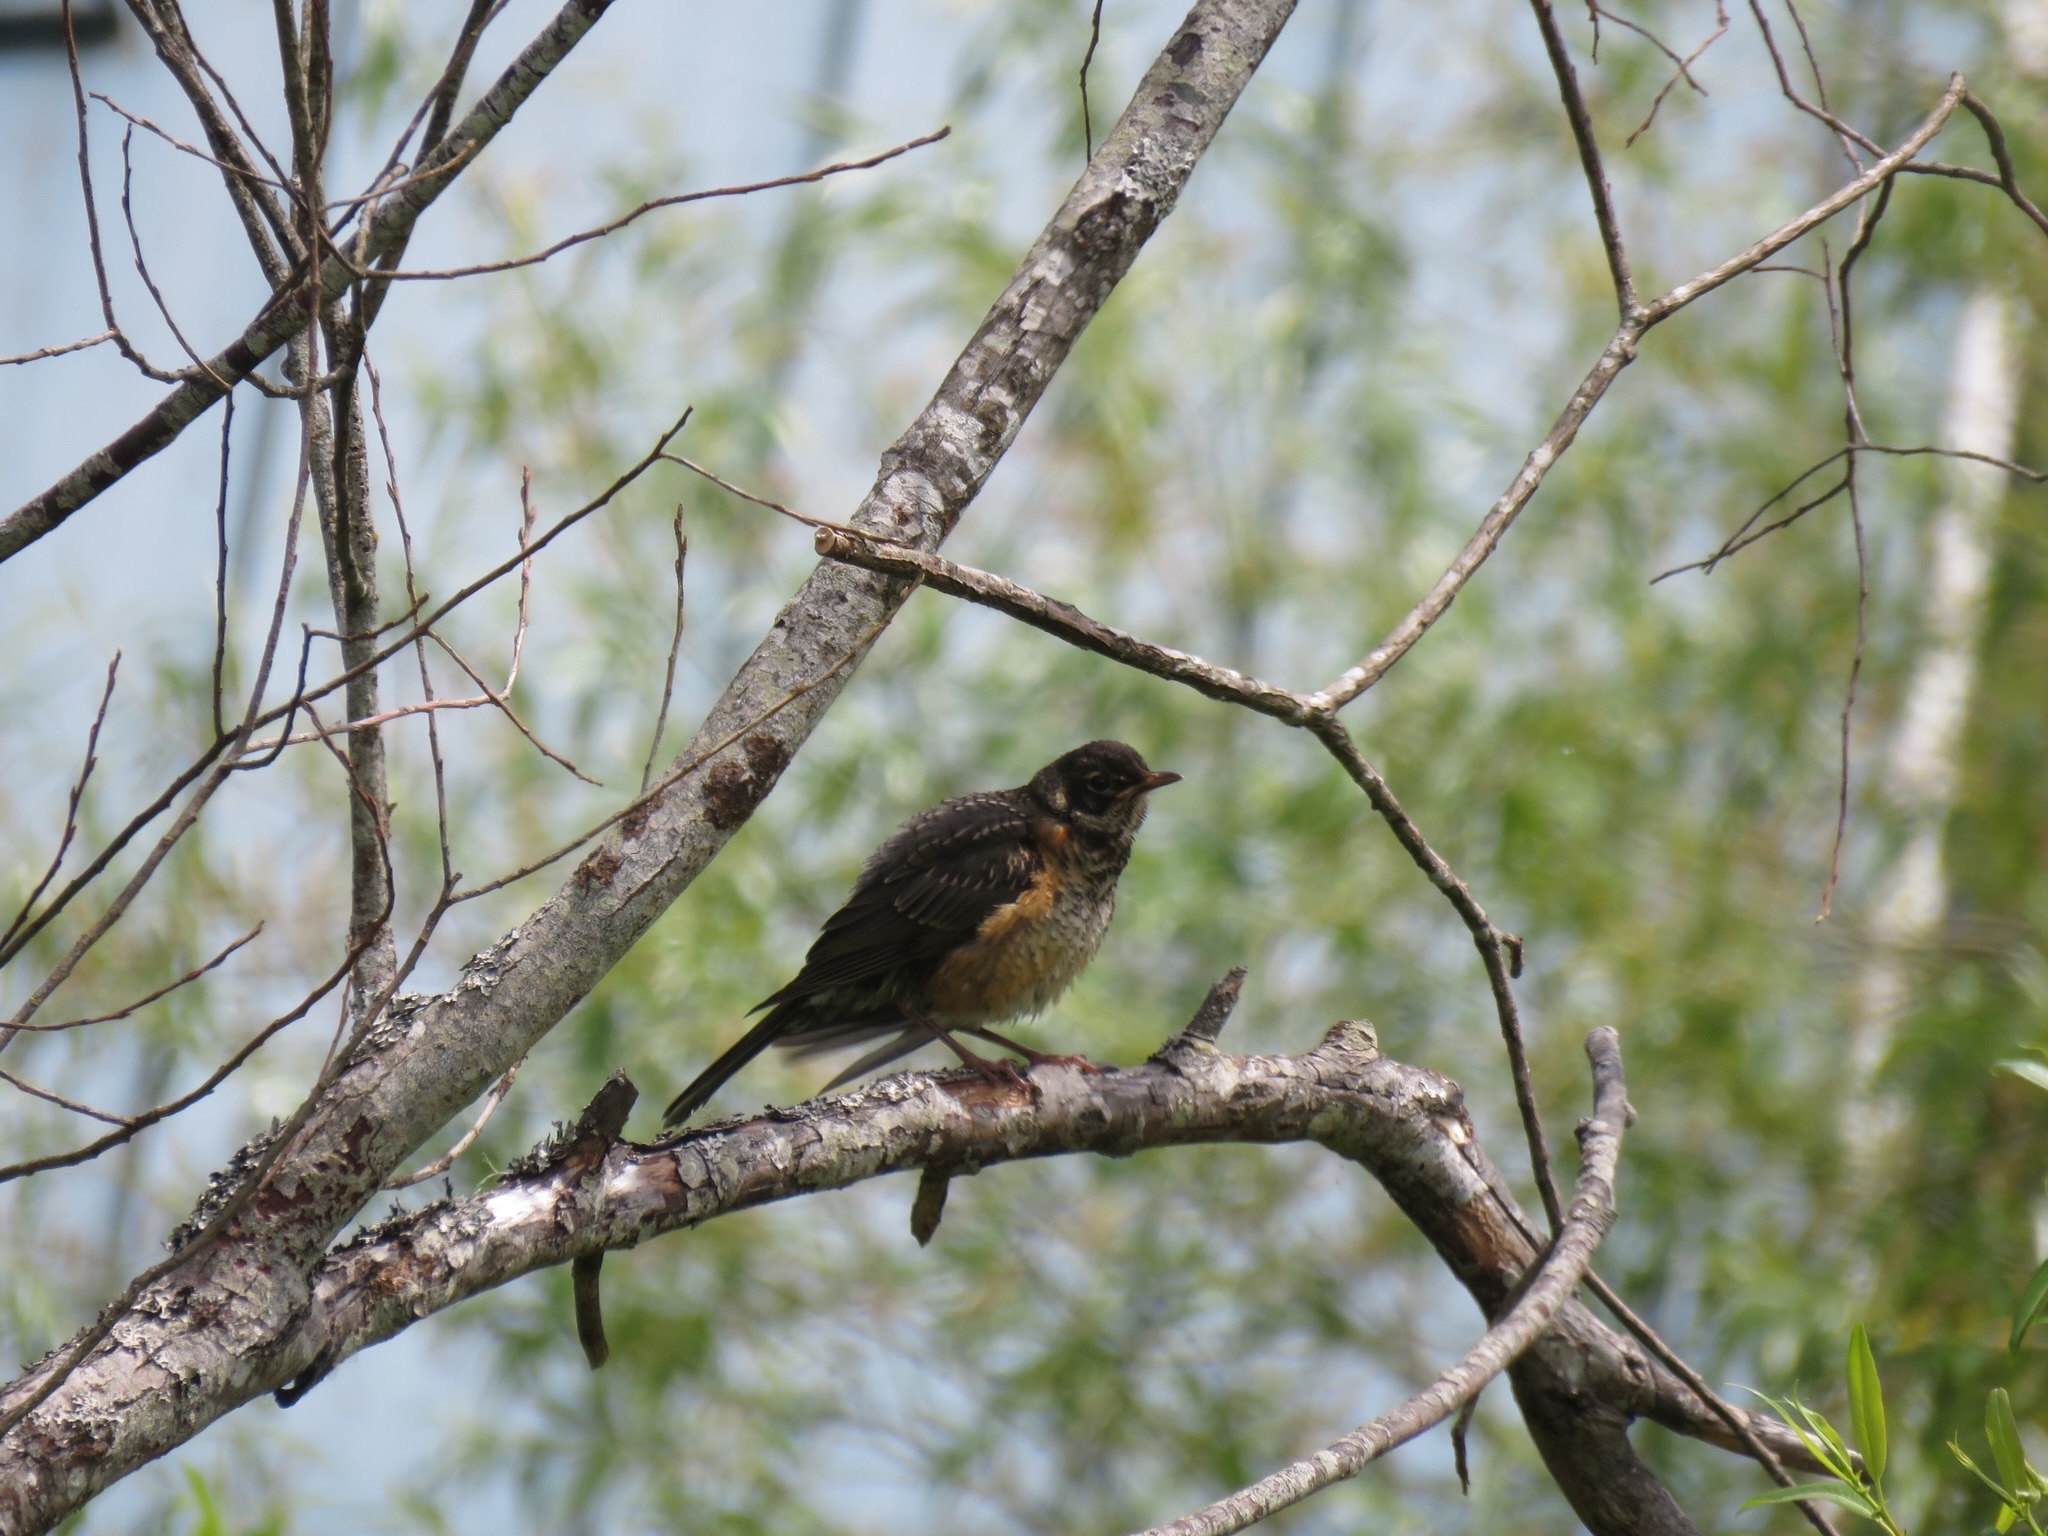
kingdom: Animalia
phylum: Chordata
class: Aves
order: Passeriformes
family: Turdidae
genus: Turdus
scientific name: Turdus migratorius
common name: American robin
